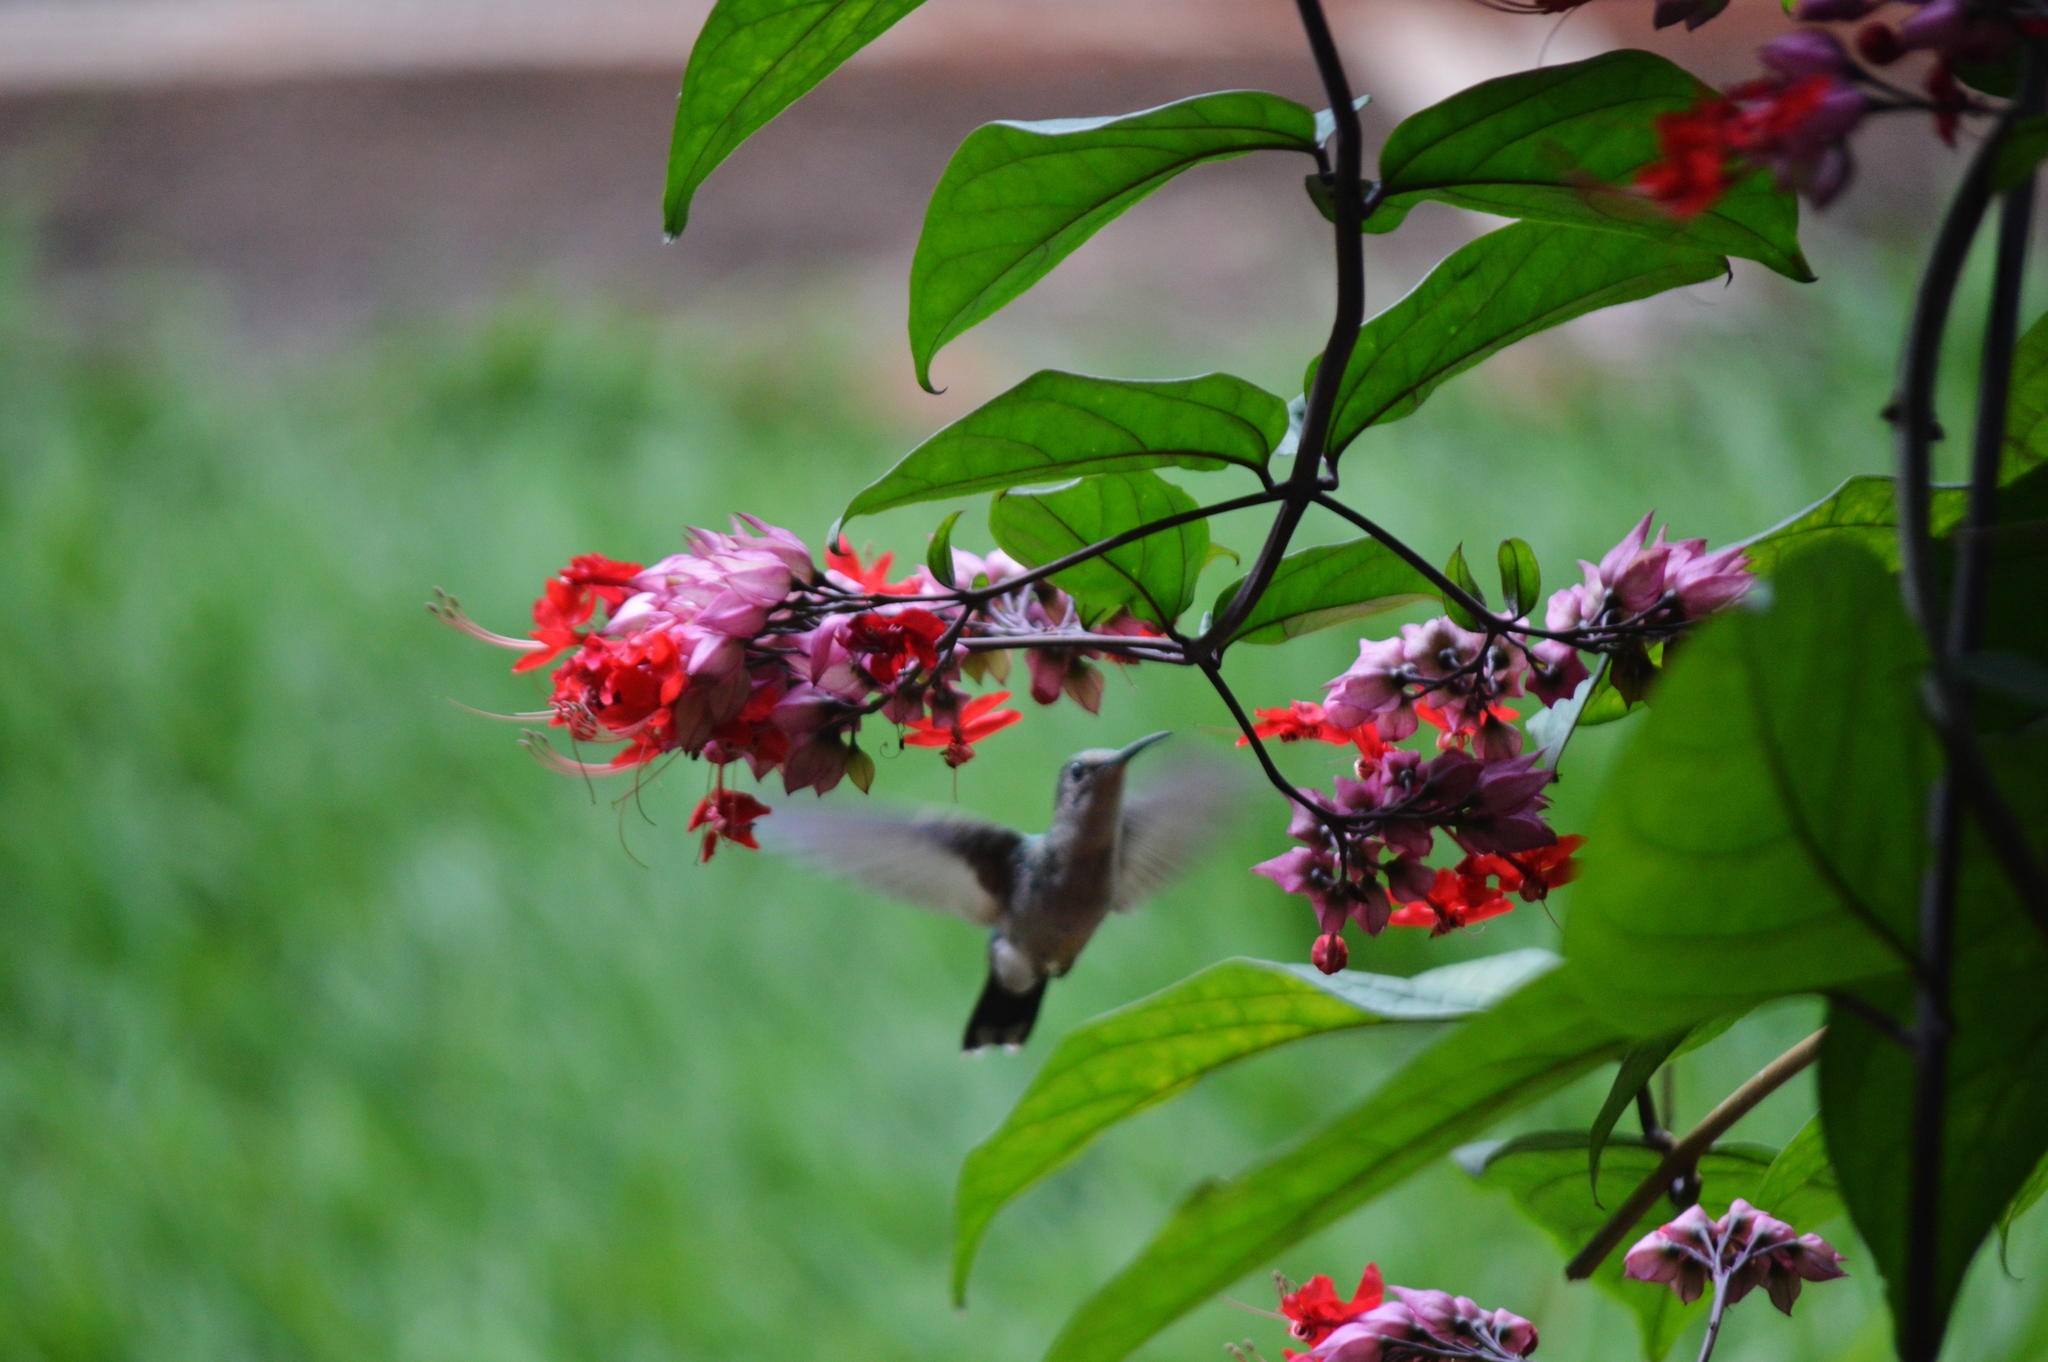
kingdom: Animalia
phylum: Chordata
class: Aves
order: Apodiformes
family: Trochilidae
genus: Thalurania
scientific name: Thalurania furcata
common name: Fork-tailed woodnymph
